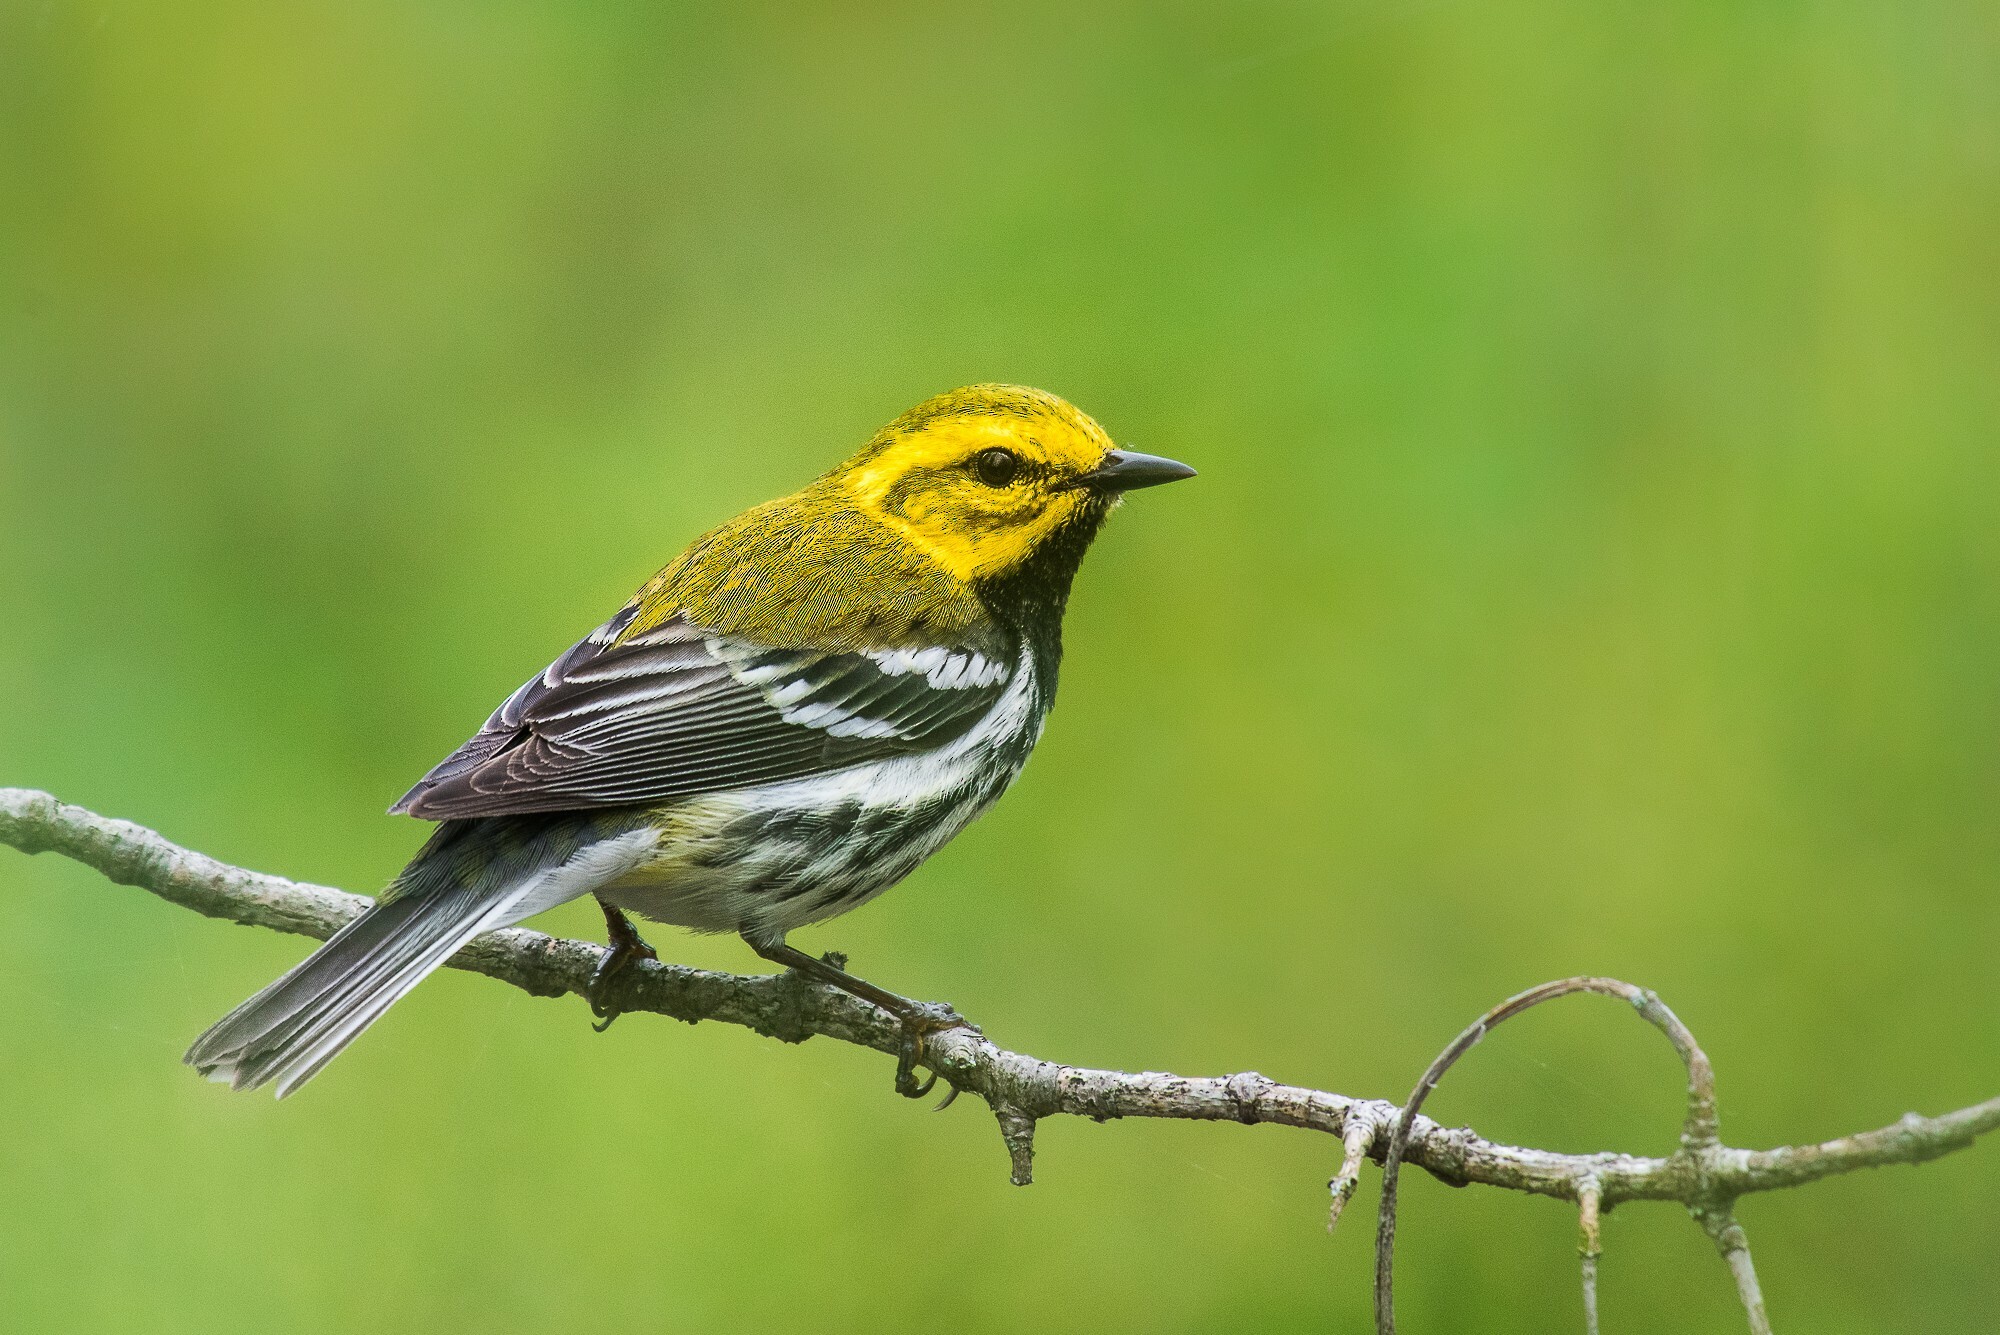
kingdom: Animalia
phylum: Chordata
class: Aves
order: Passeriformes
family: Parulidae
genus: Setophaga
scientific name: Setophaga virens
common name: Black-throated green warbler
